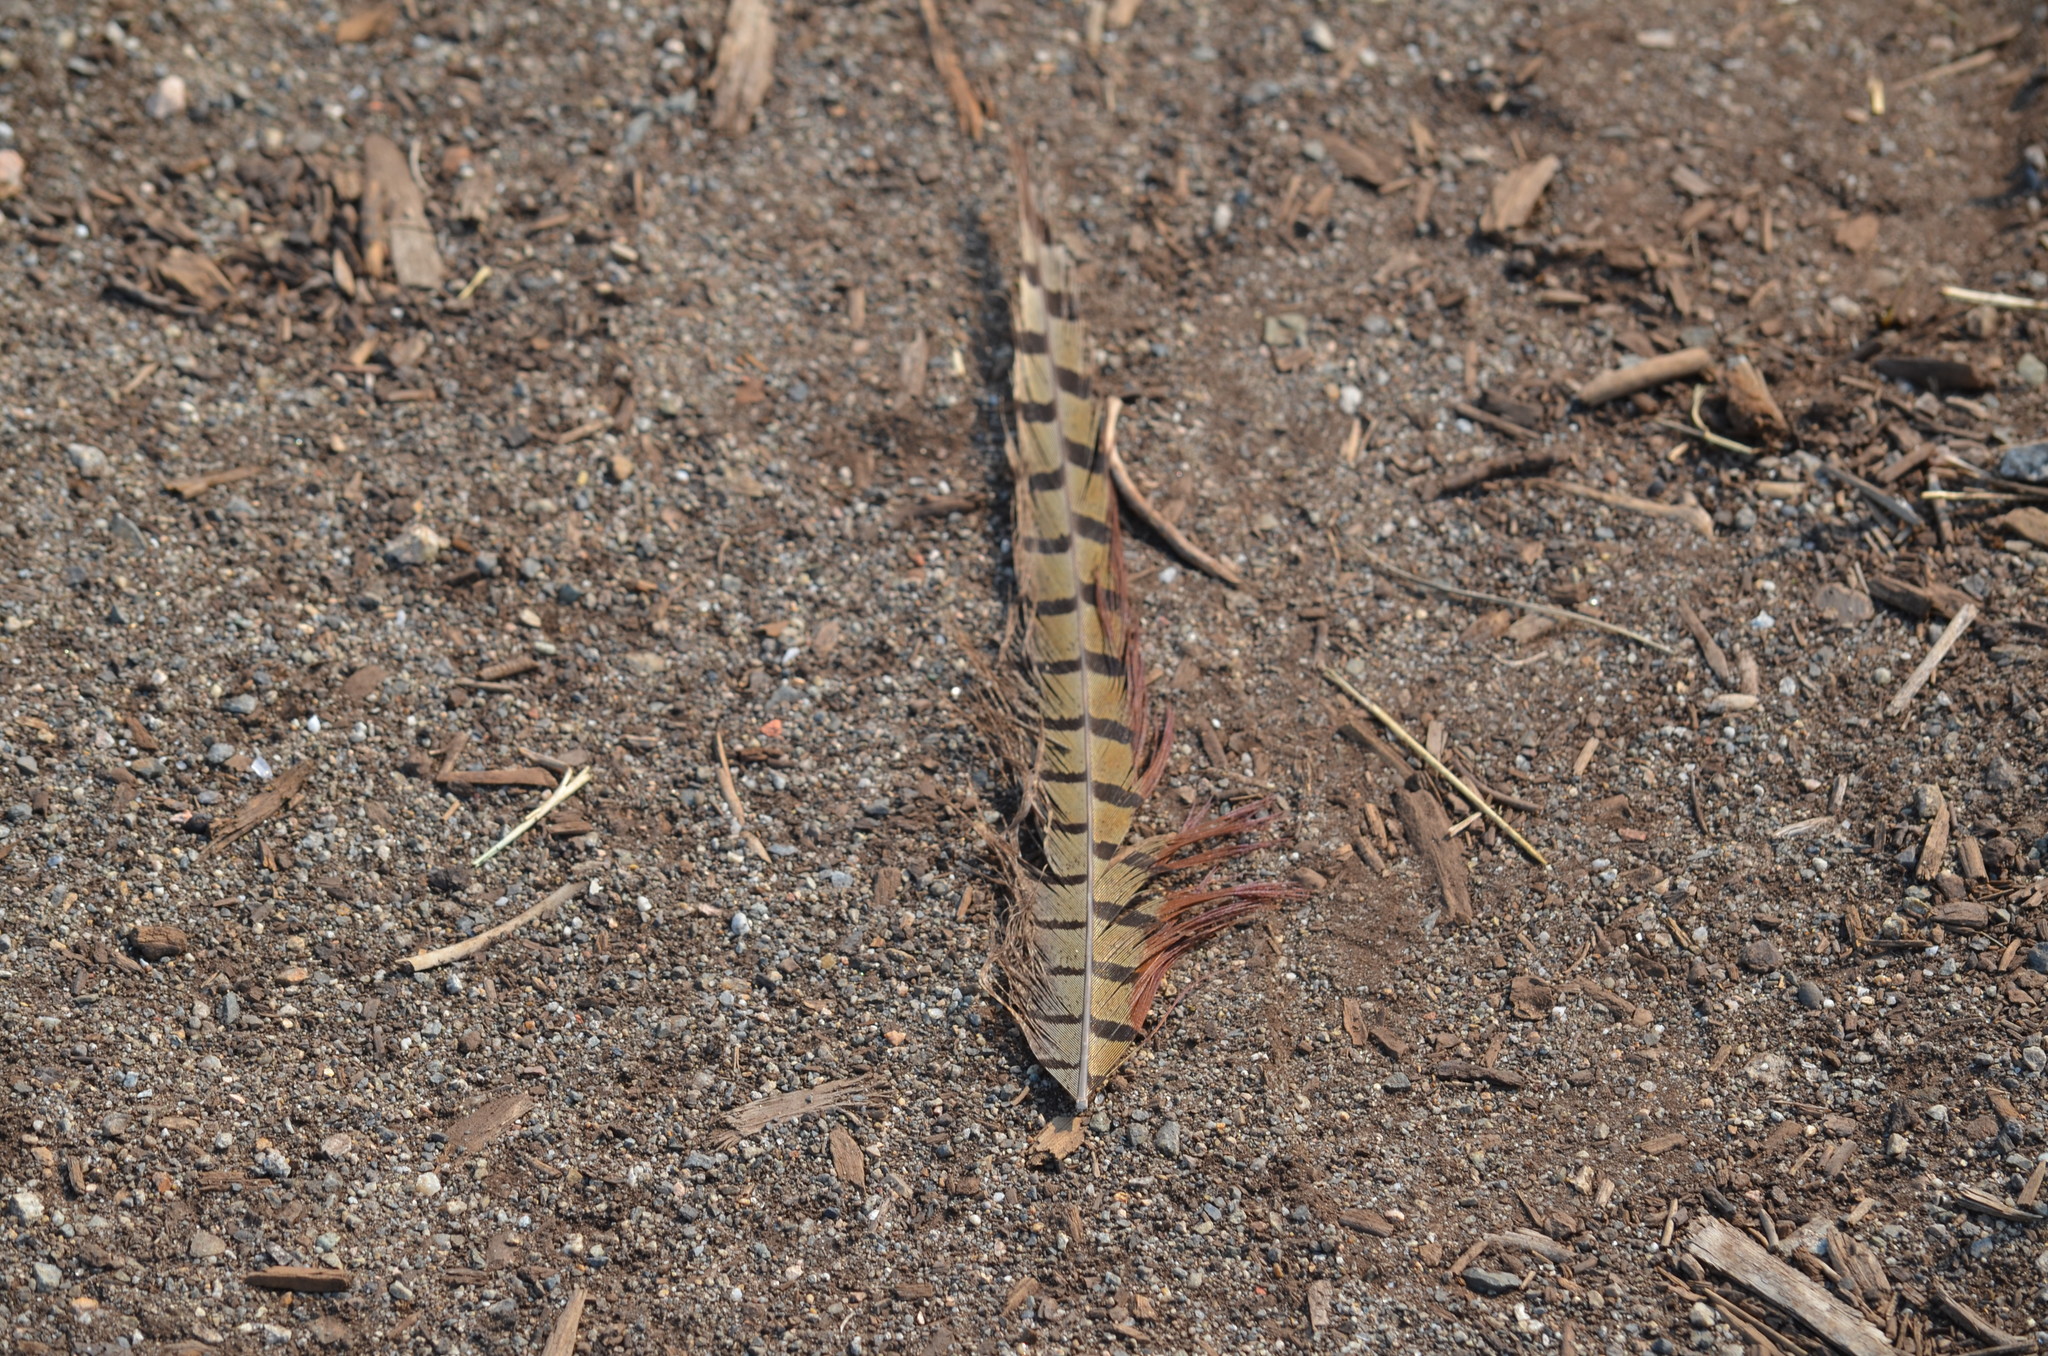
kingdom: Animalia
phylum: Chordata
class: Aves
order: Galliformes
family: Phasianidae
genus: Phasianus
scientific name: Phasianus colchicus
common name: Common pheasant
